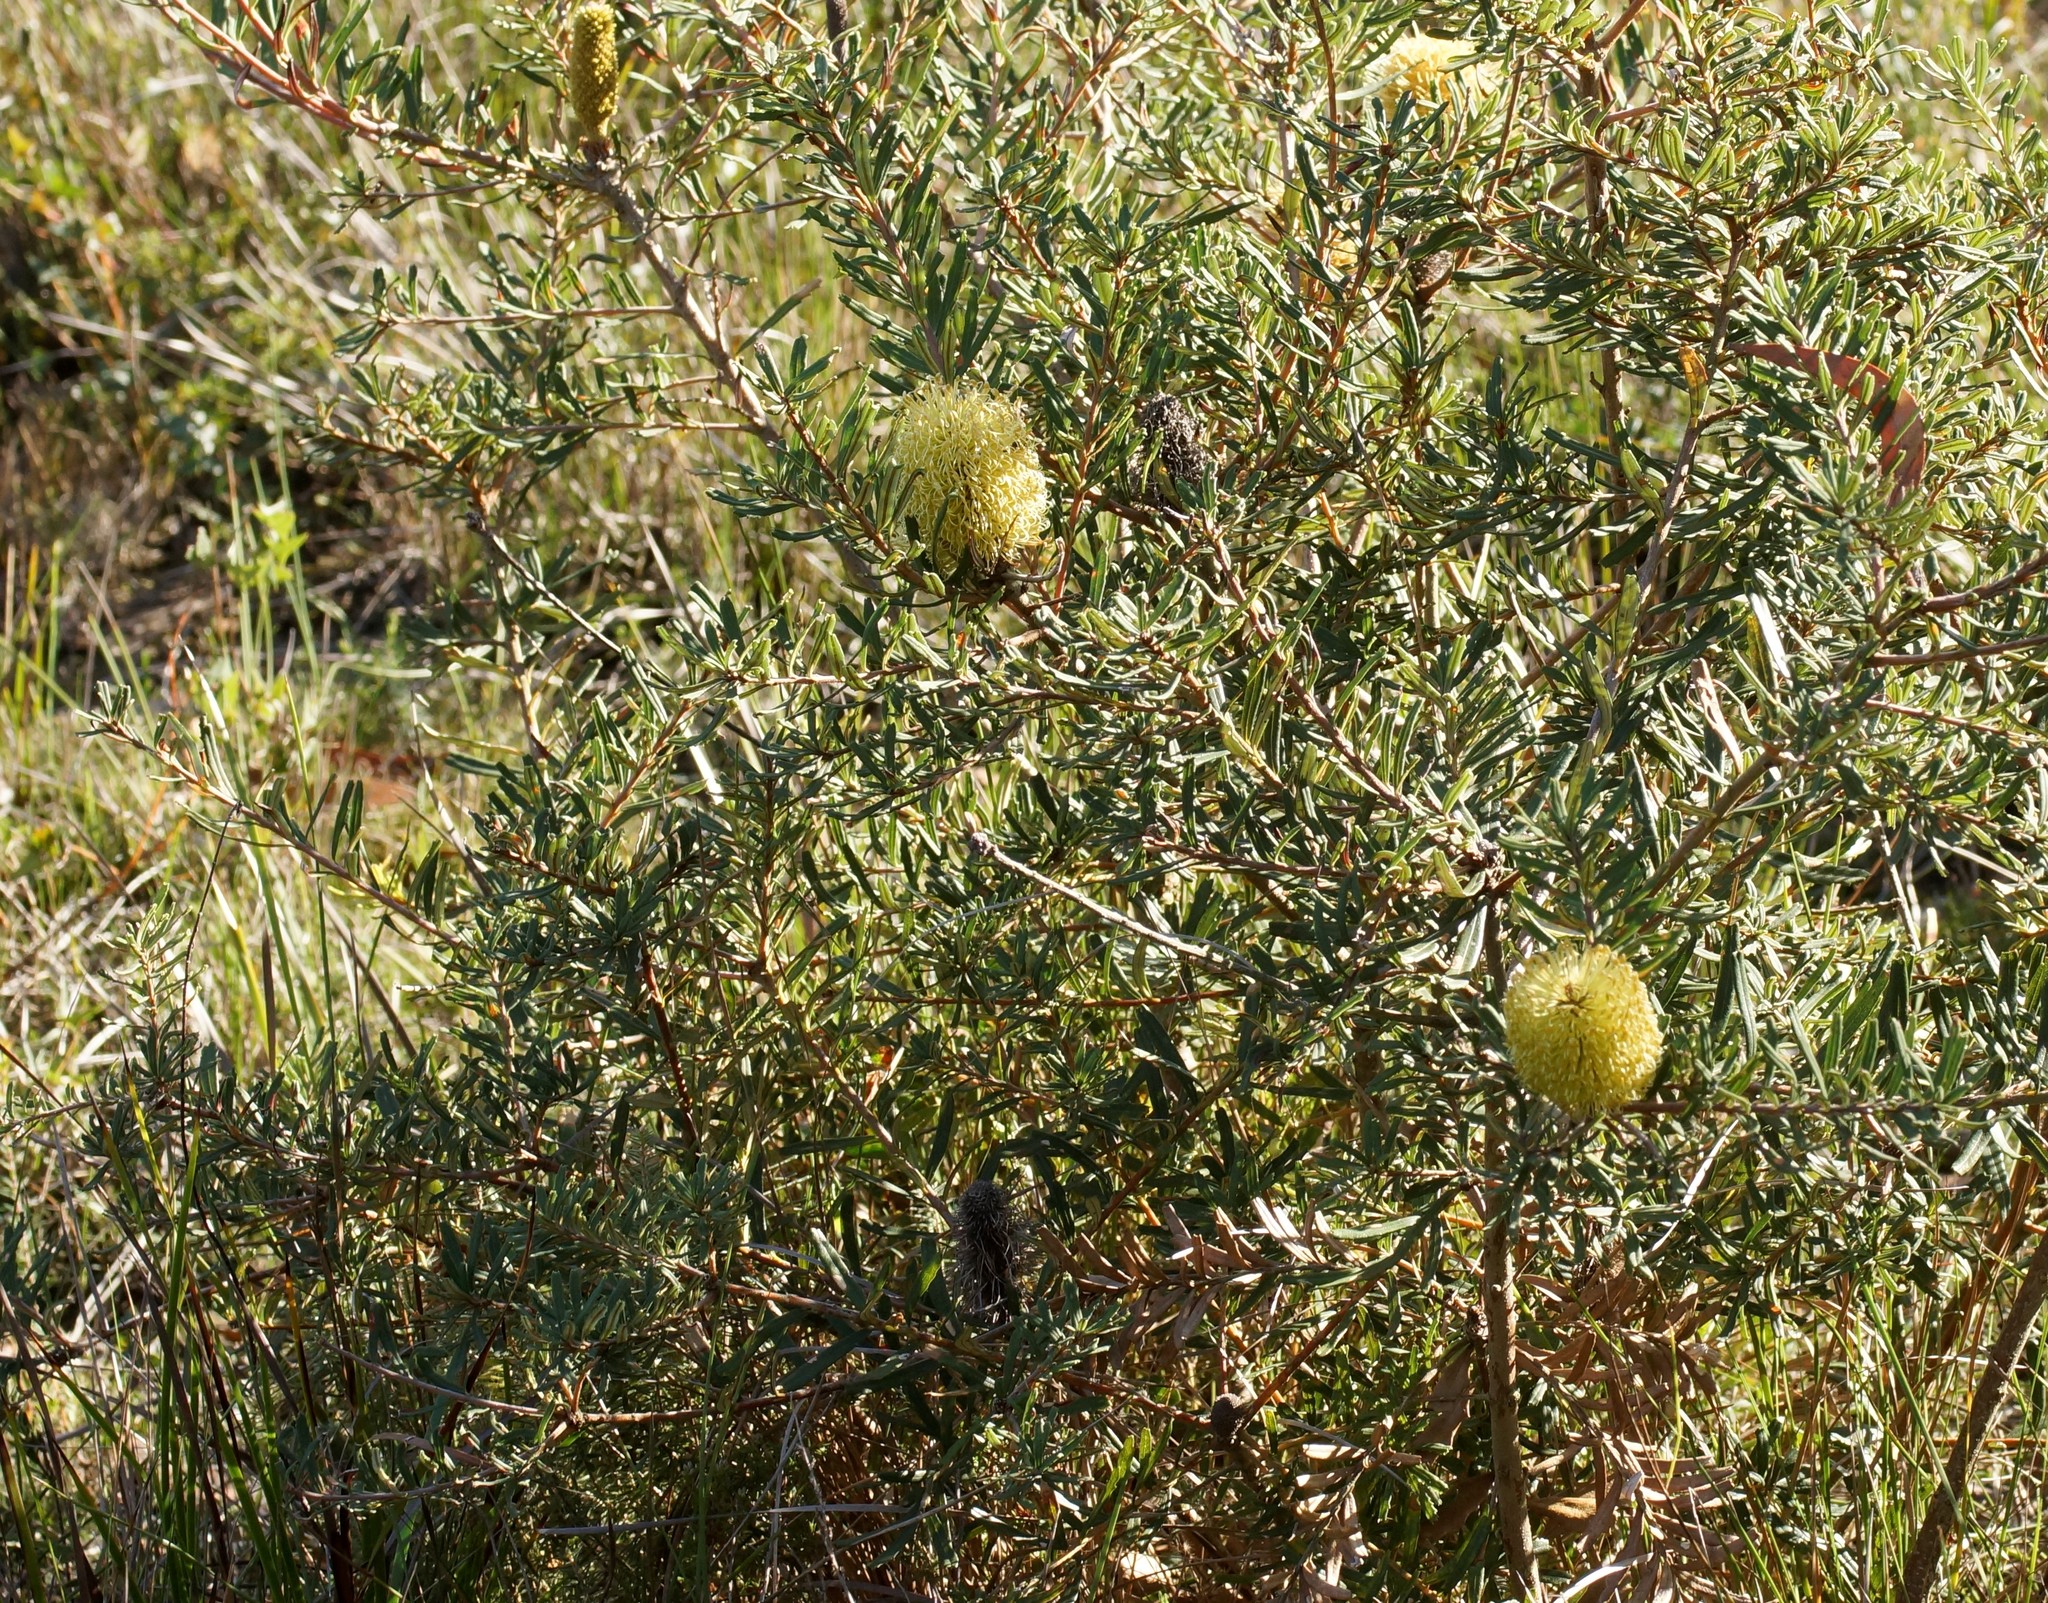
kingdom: Plantae
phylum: Tracheophyta
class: Magnoliopsida
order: Proteales
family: Proteaceae
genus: Banksia
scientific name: Banksia marginata
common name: Silver banksia
